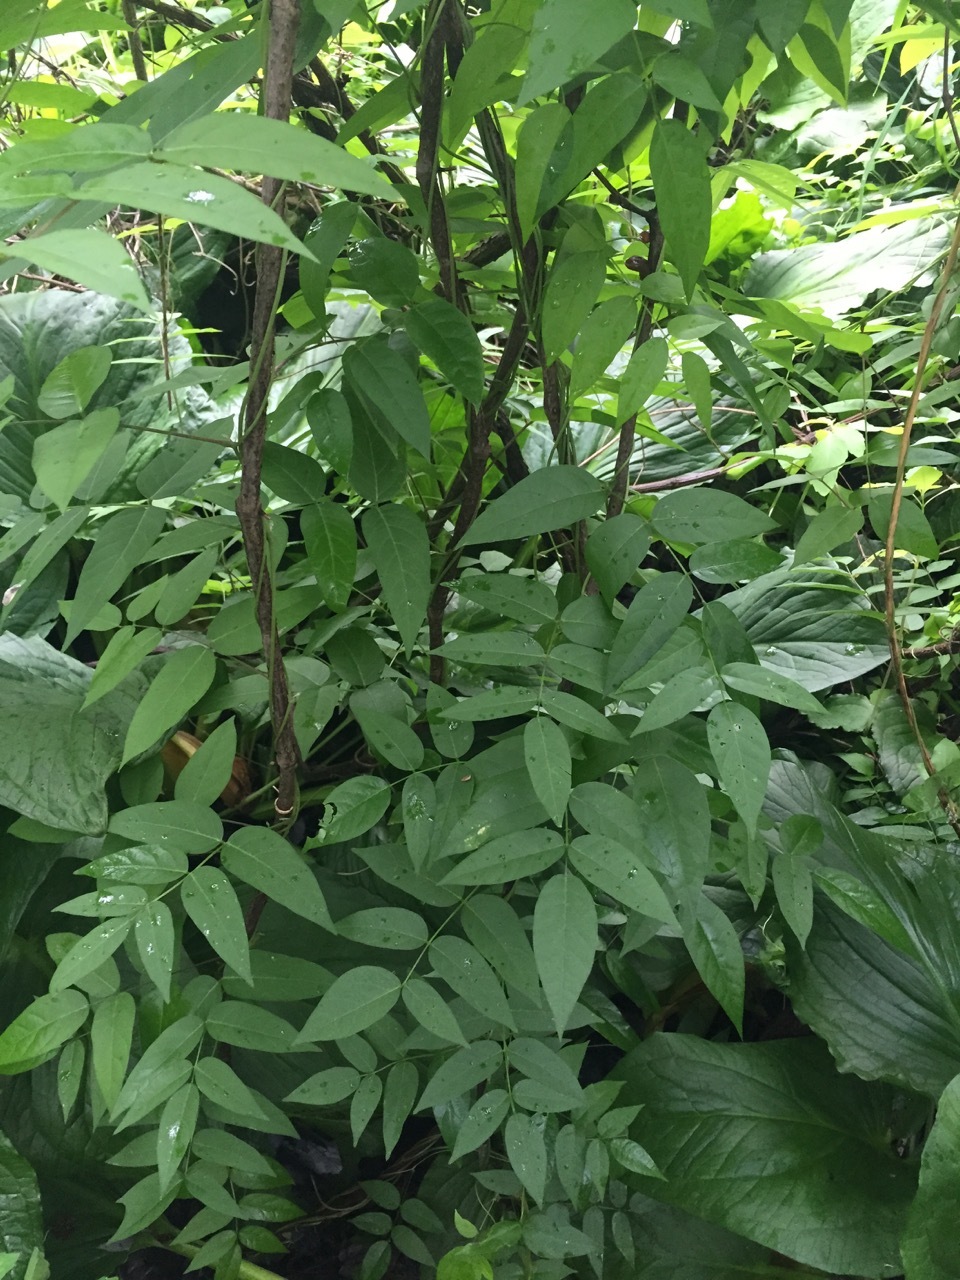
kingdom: Plantae
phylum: Tracheophyta
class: Magnoliopsida
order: Fabales
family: Fabaceae
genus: Apios
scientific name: Apios americana
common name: American potato-bean
